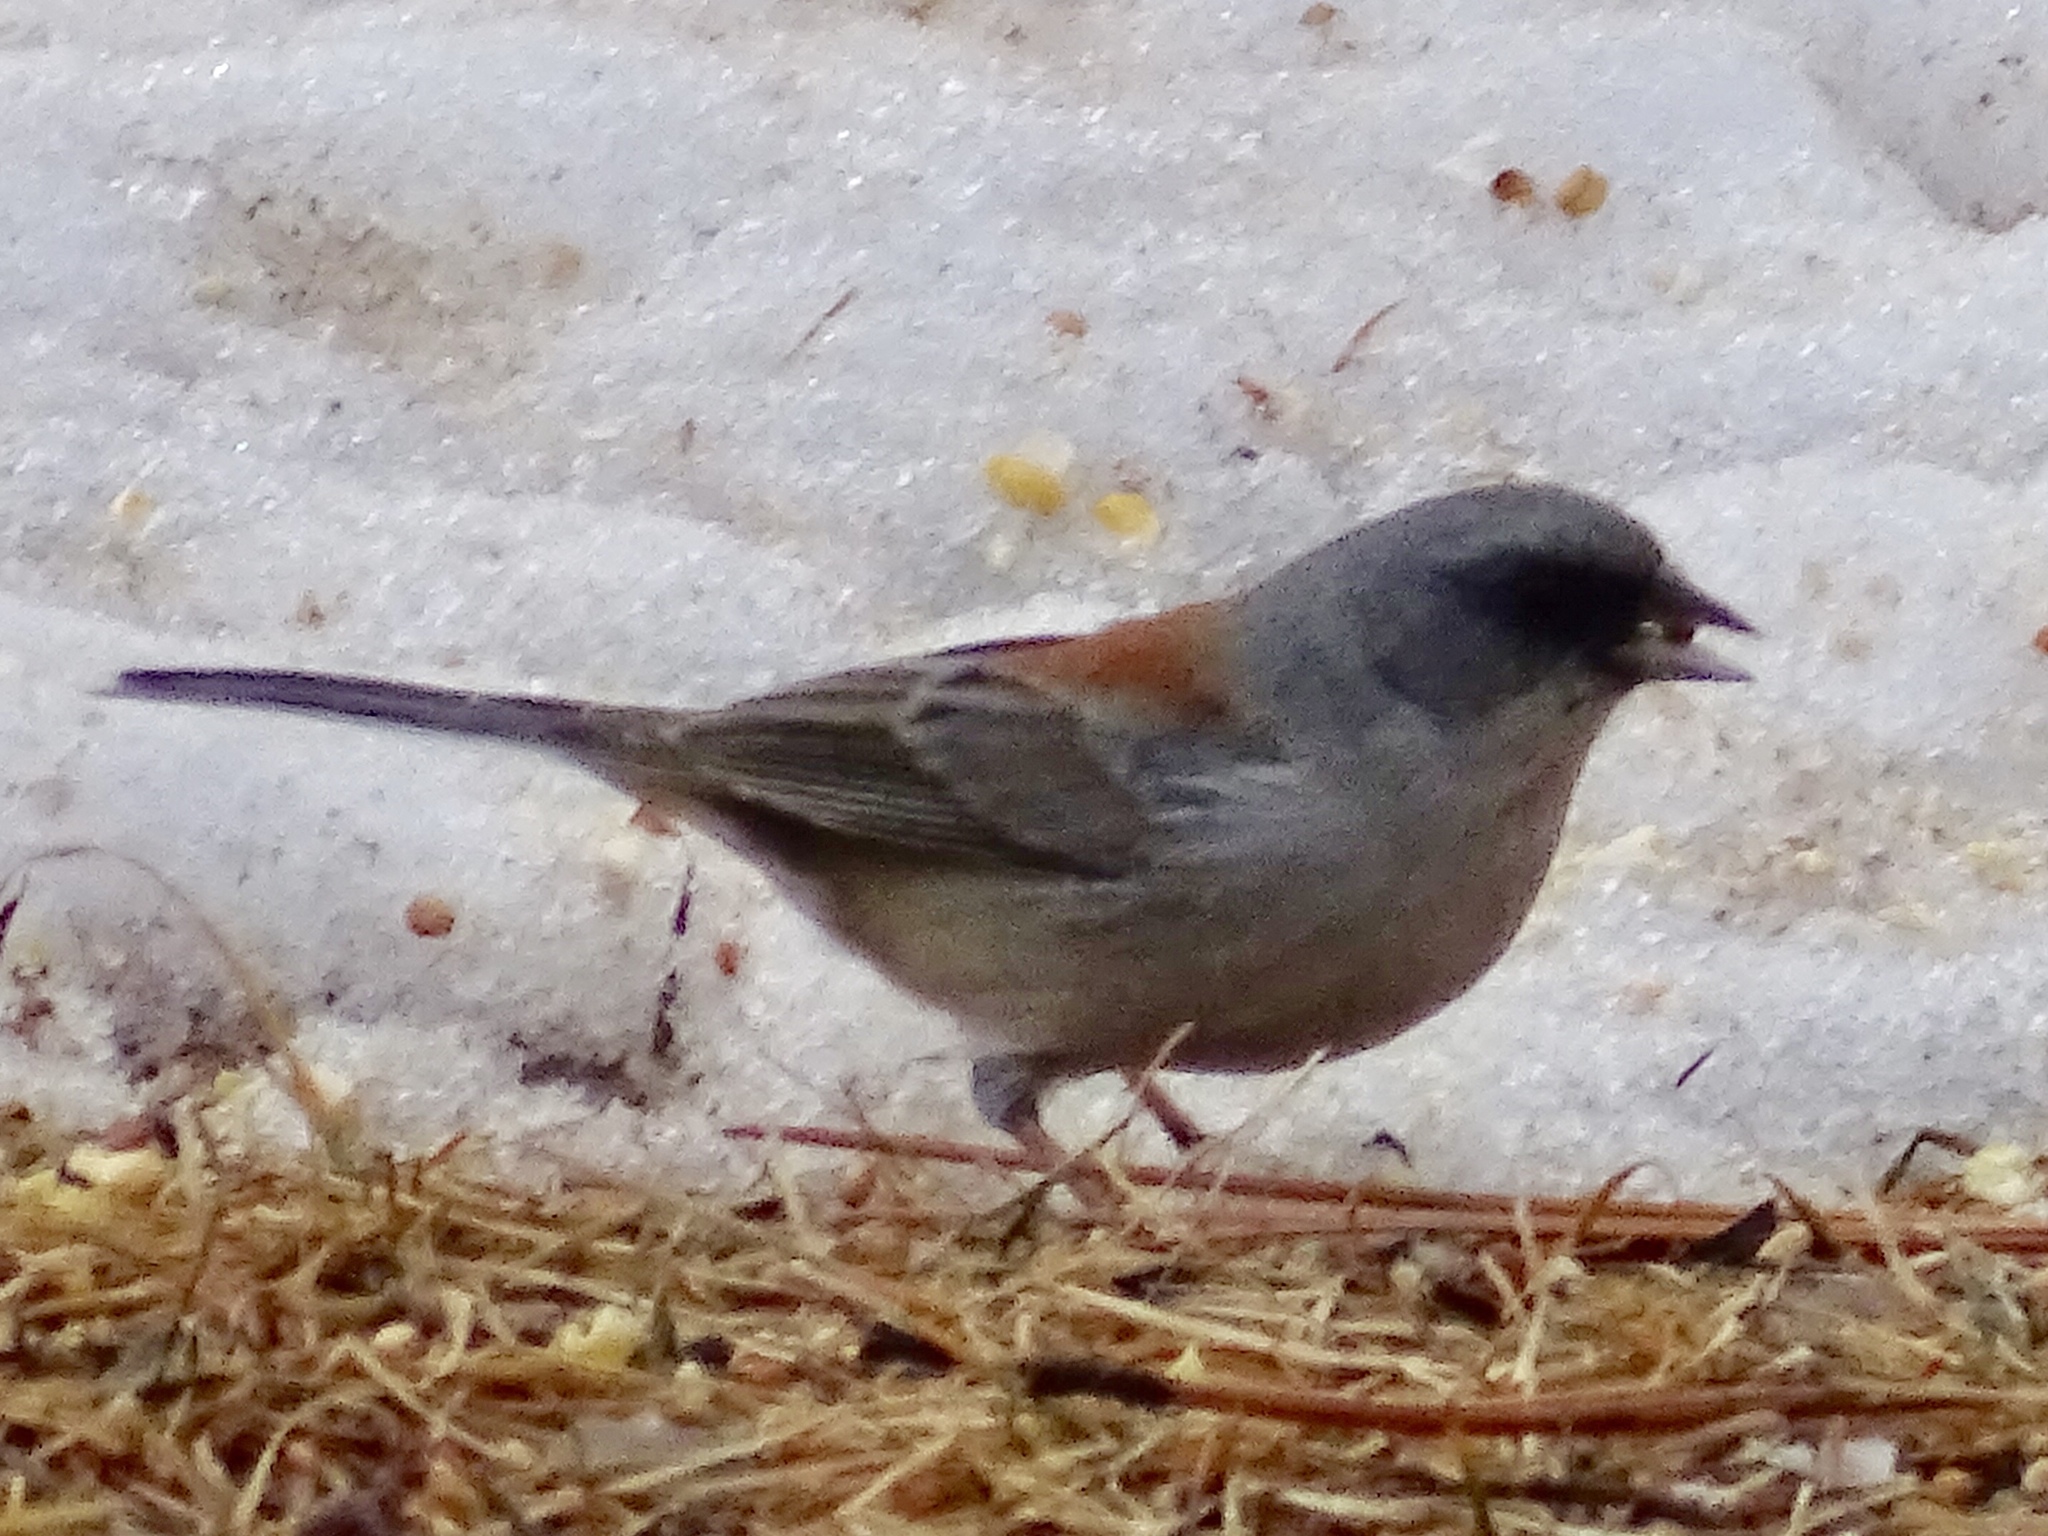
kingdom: Animalia
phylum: Chordata
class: Aves
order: Passeriformes
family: Passerellidae
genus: Junco
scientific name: Junco hyemalis
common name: Dark-eyed junco
